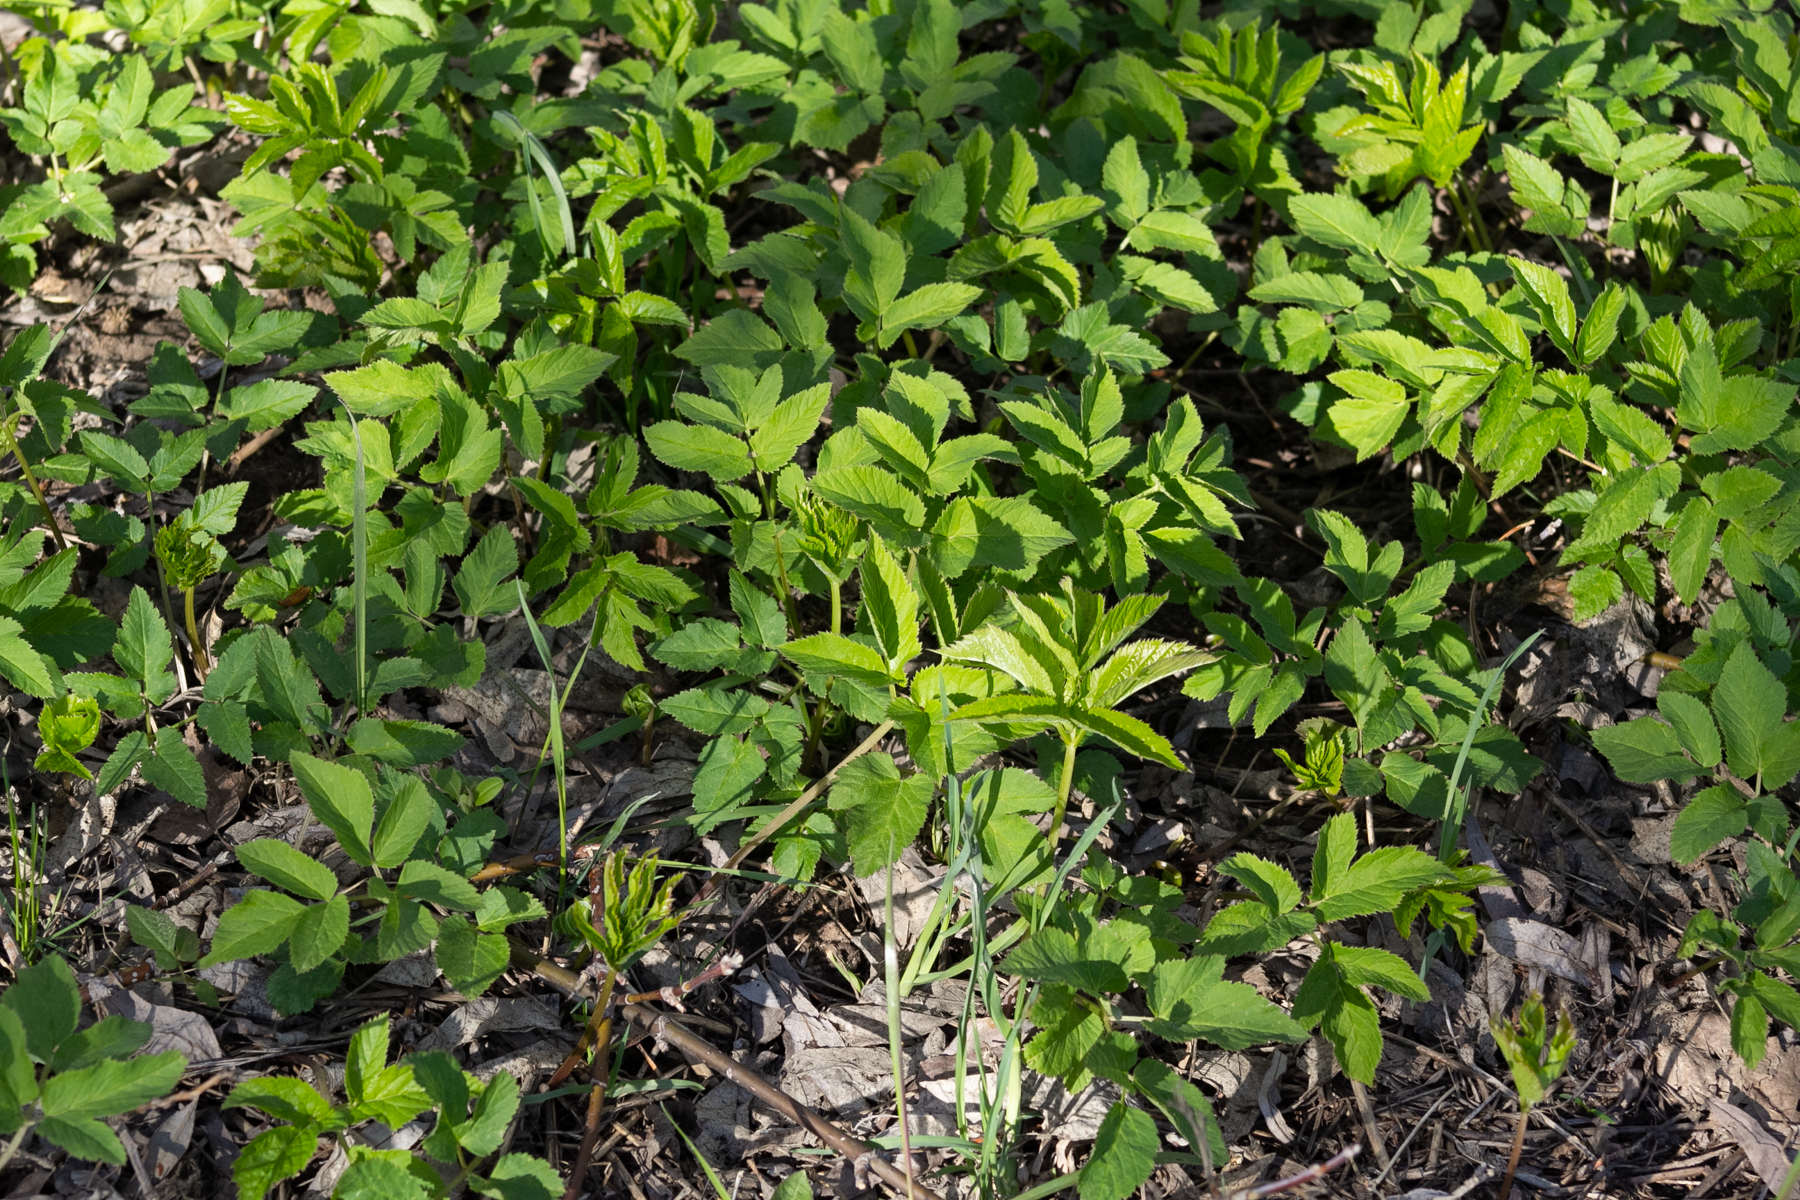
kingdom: Plantae
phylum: Tracheophyta
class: Magnoliopsida
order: Apiales
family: Apiaceae
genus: Aegopodium
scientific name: Aegopodium podagraria
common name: Ground-elder
